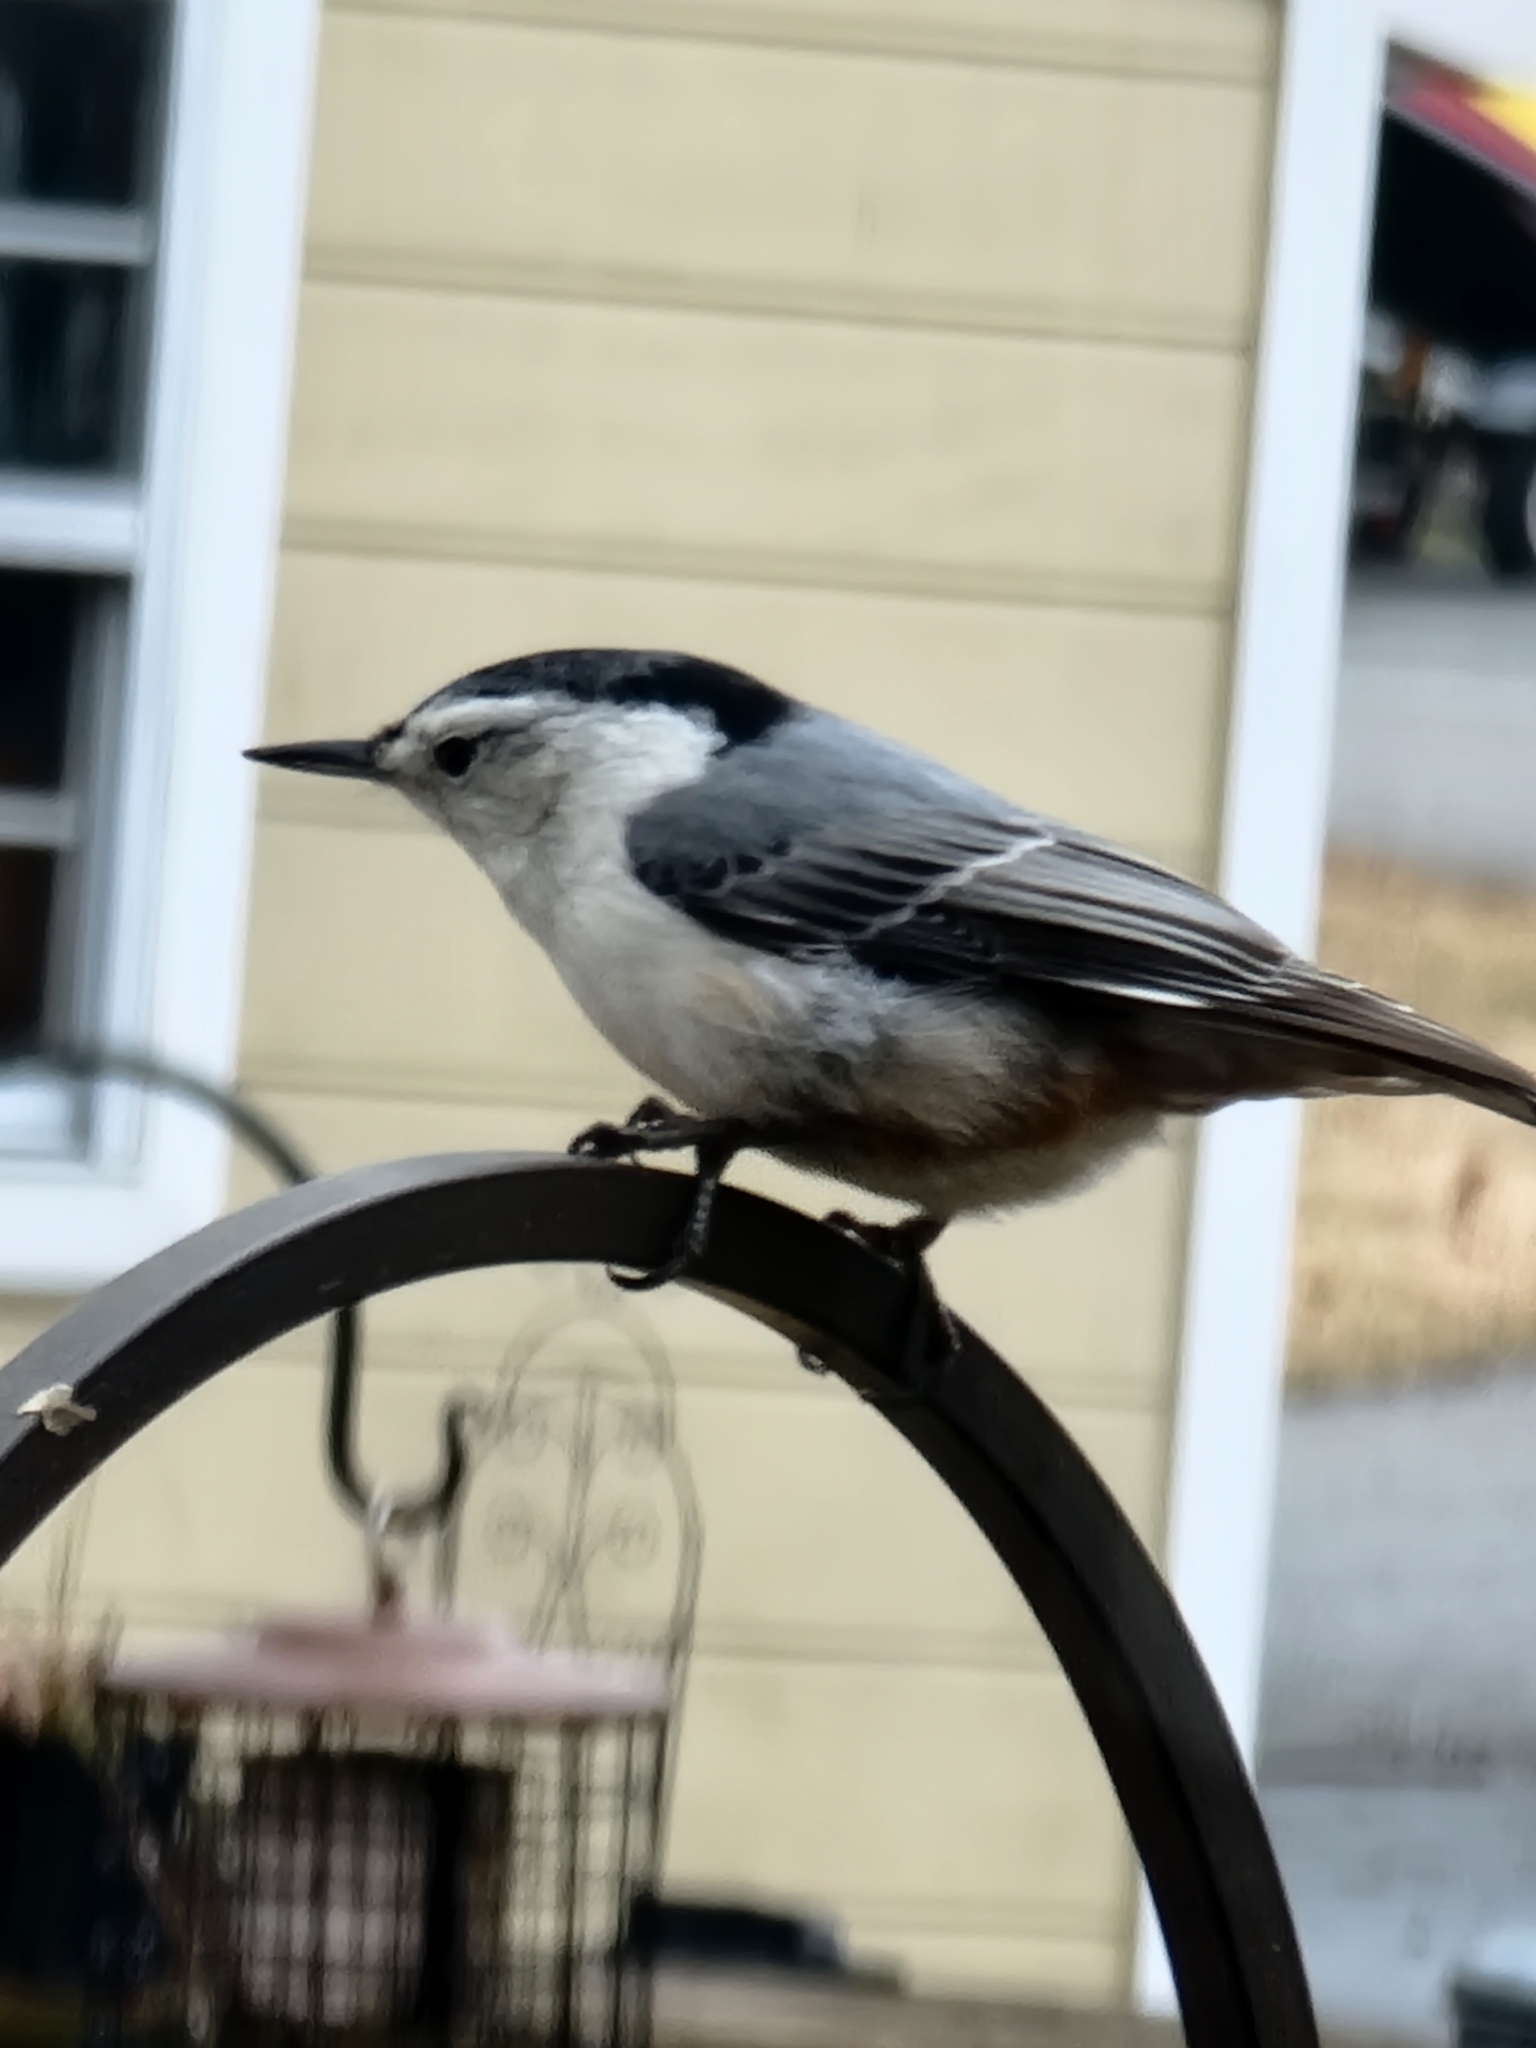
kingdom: Animalia
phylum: Chordata
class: Aves
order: Passeriformes
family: Sittidae
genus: Sitta
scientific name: Sitta carolinensis
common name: White-breasted nuthatch
